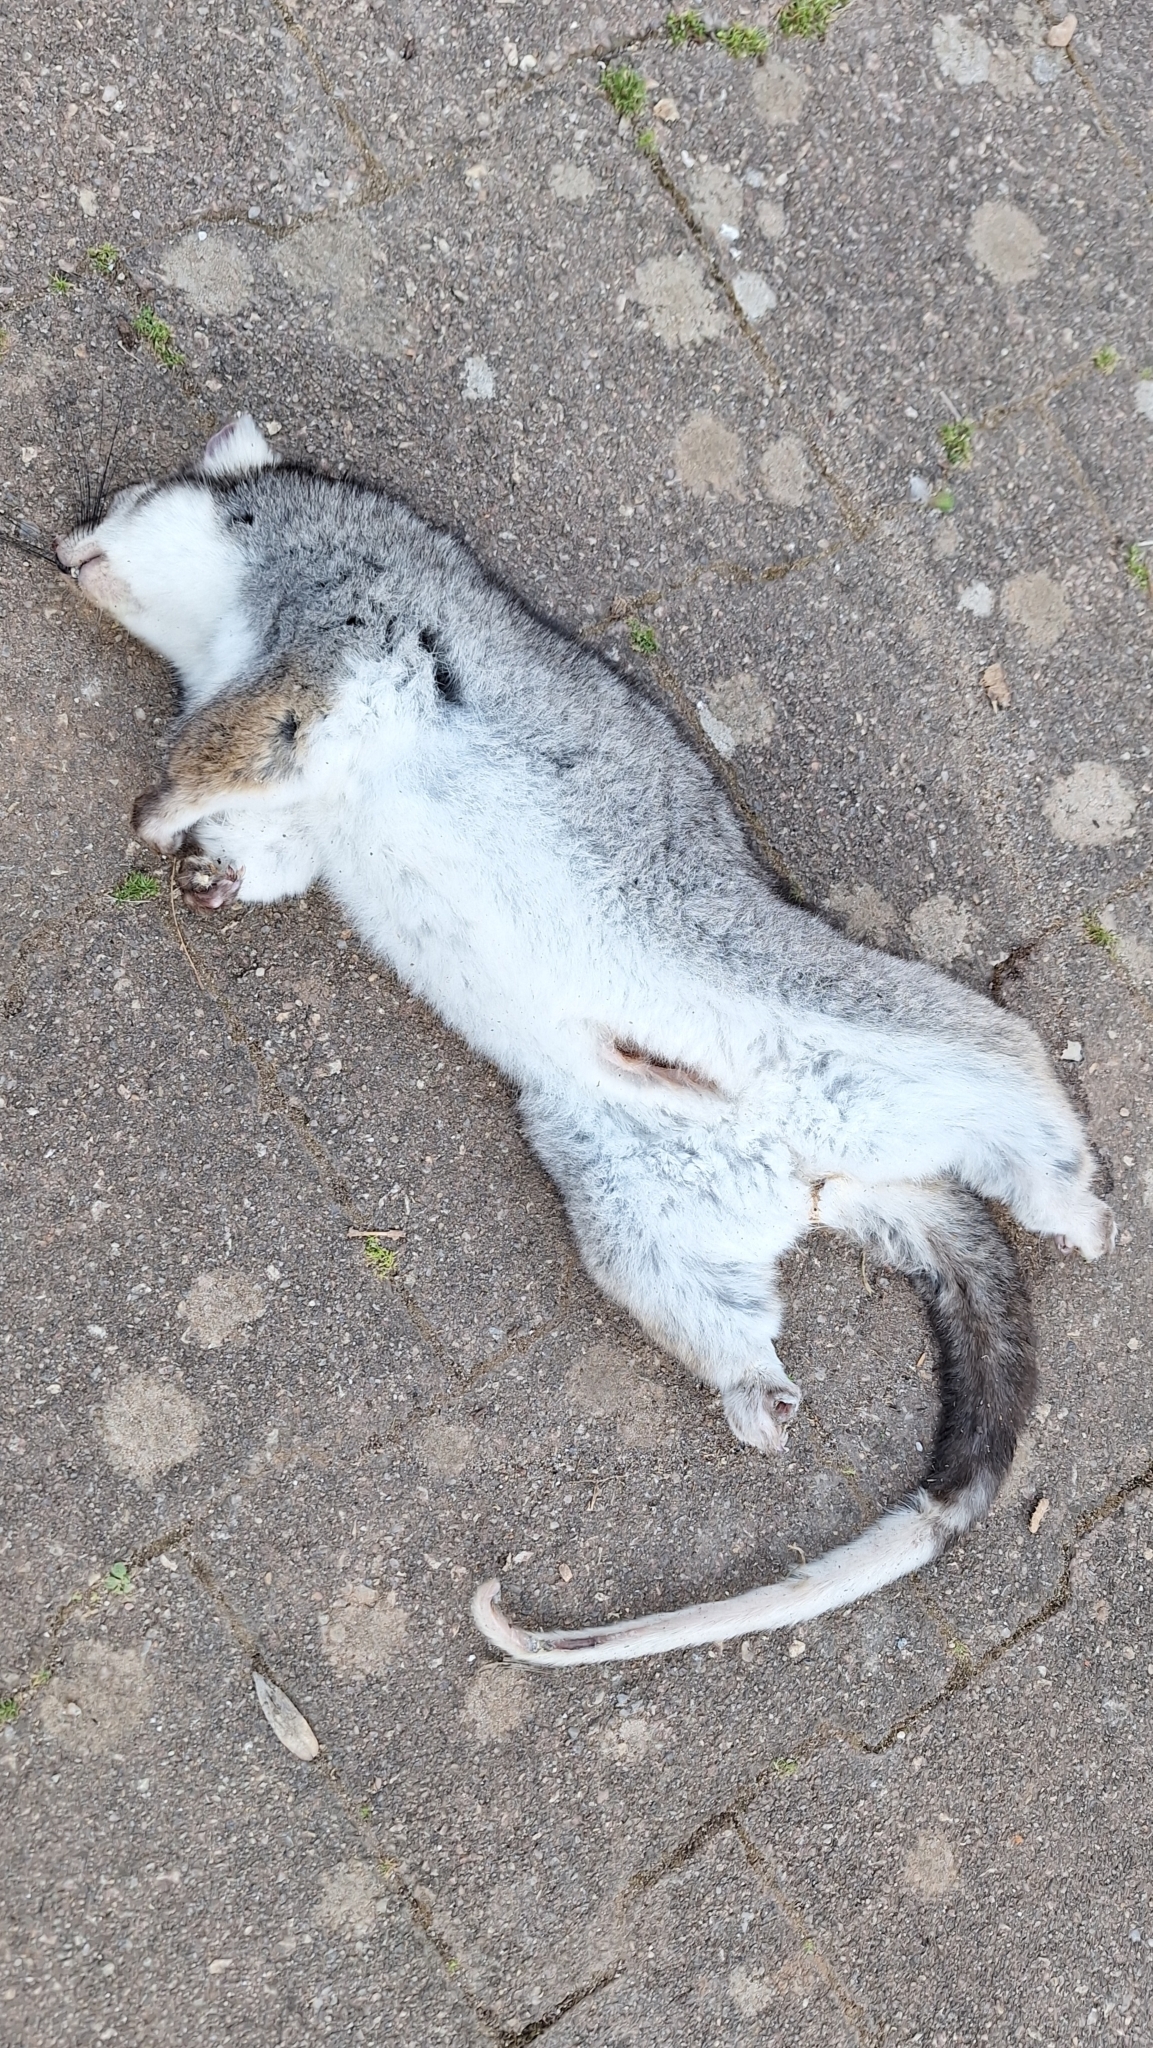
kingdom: Animalia
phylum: Chordata
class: Mammalia
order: Diprotodontia
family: Pseudocheiridae
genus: Pseudocheirus
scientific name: Pseudocheirus peregrinus
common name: Common ringtail possum
